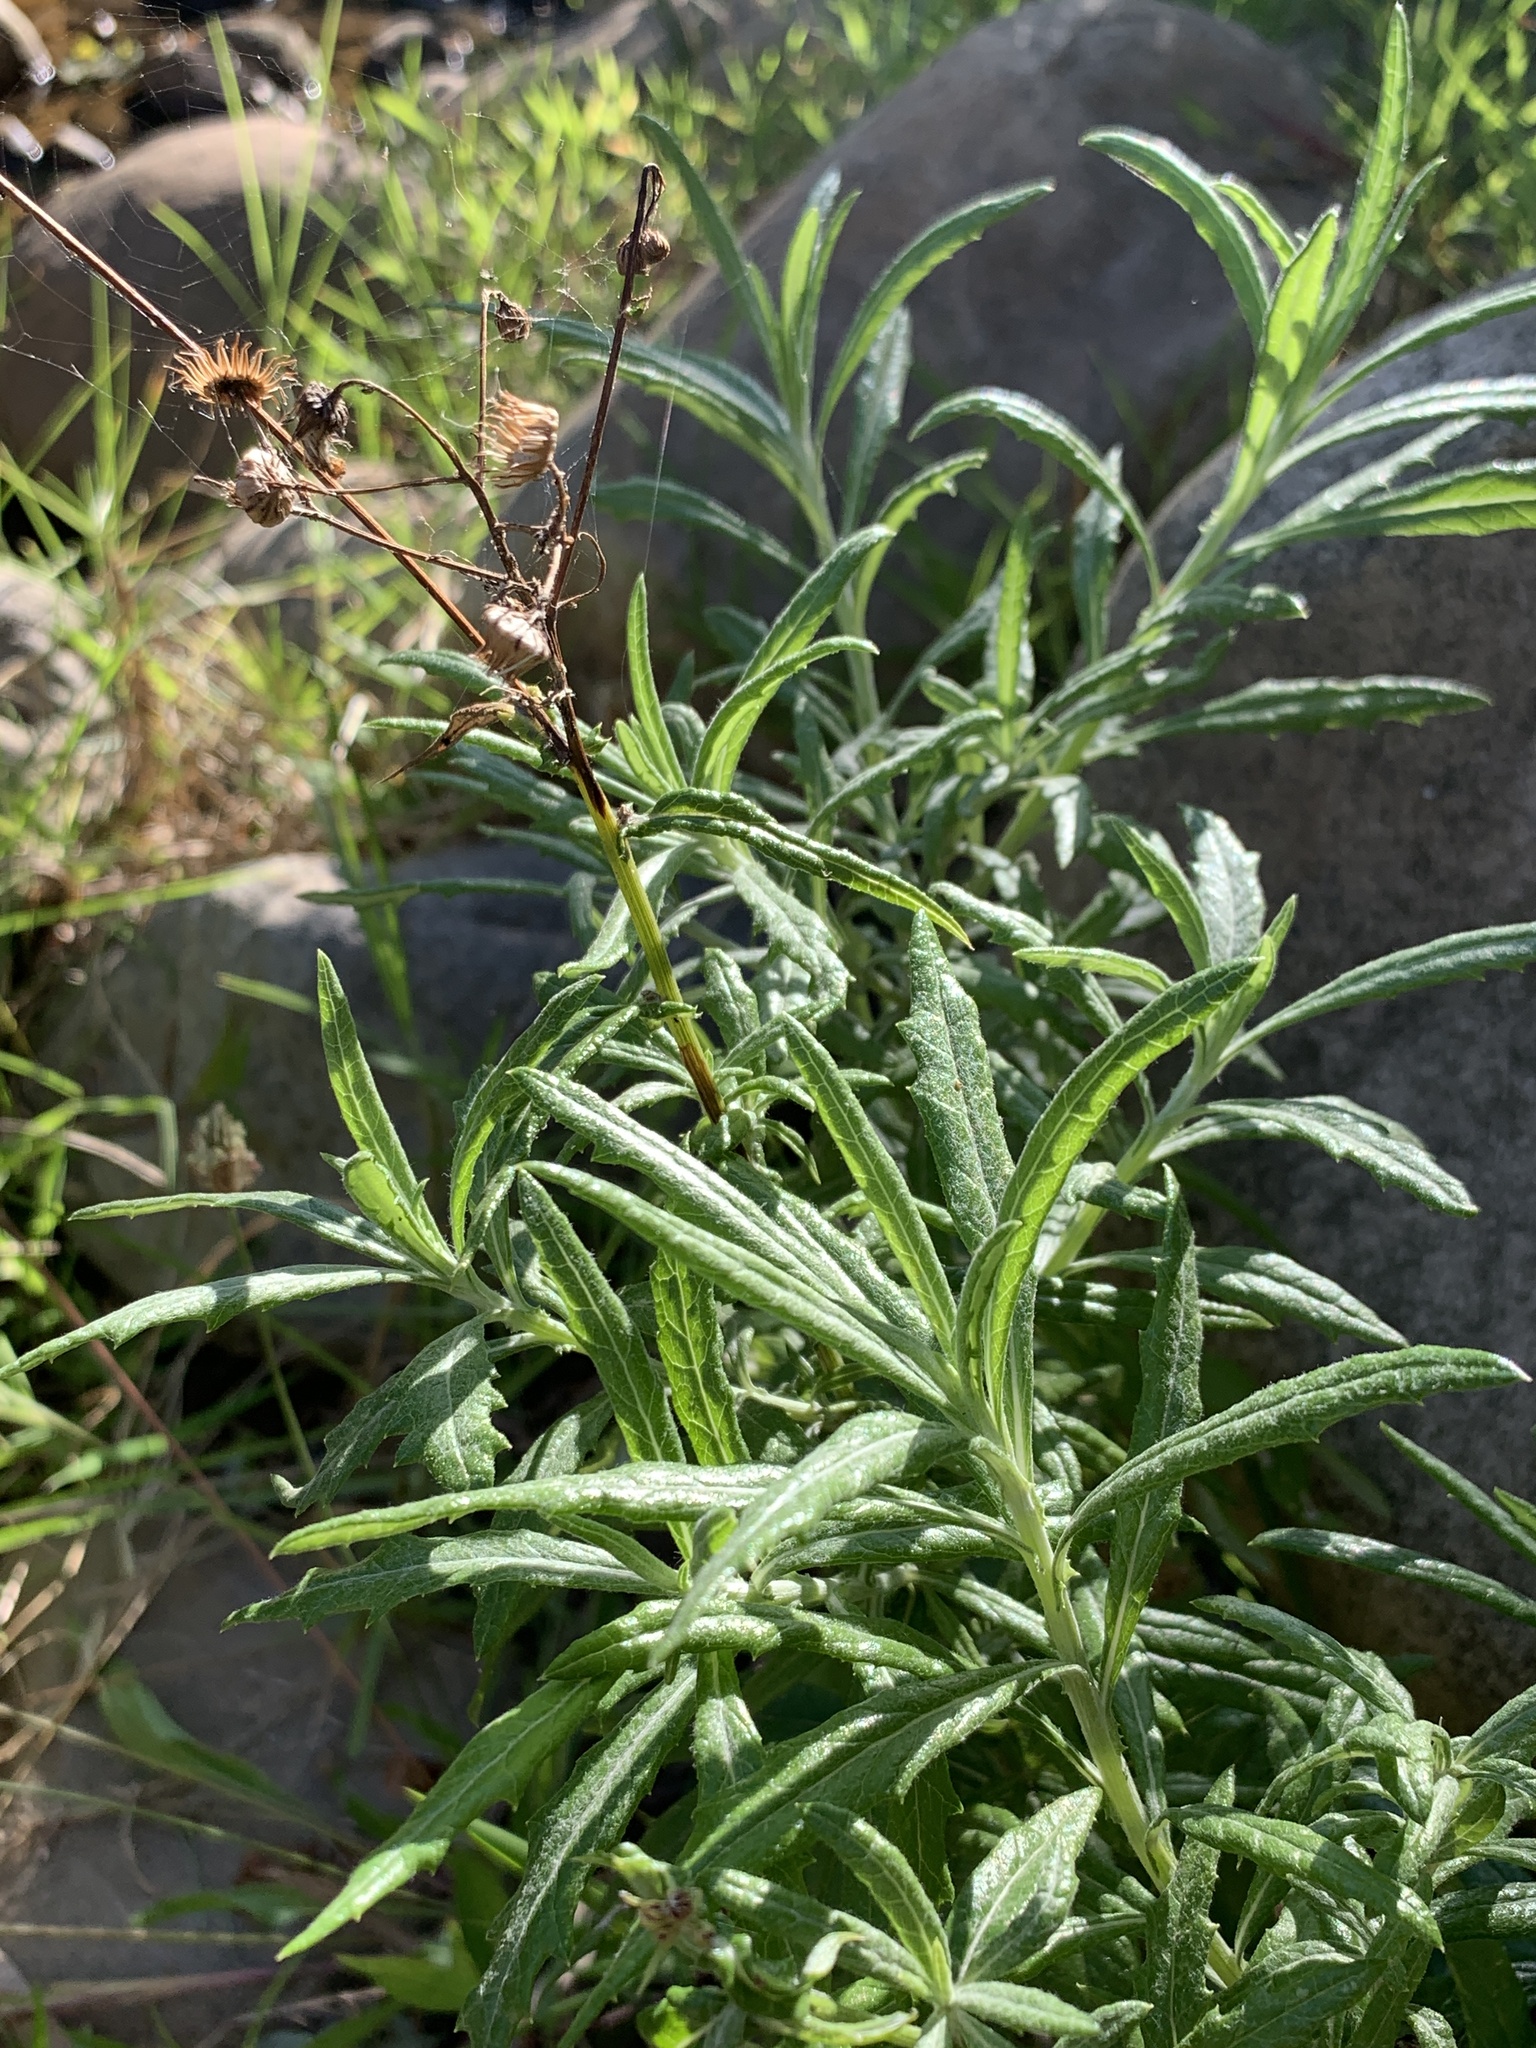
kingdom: Plantae
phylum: Tracheophyta
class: Magnoliopsida
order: Asterales
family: Asteraceae
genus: Senecio
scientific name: Senecio pterophorus
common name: Shoddy ragwort
